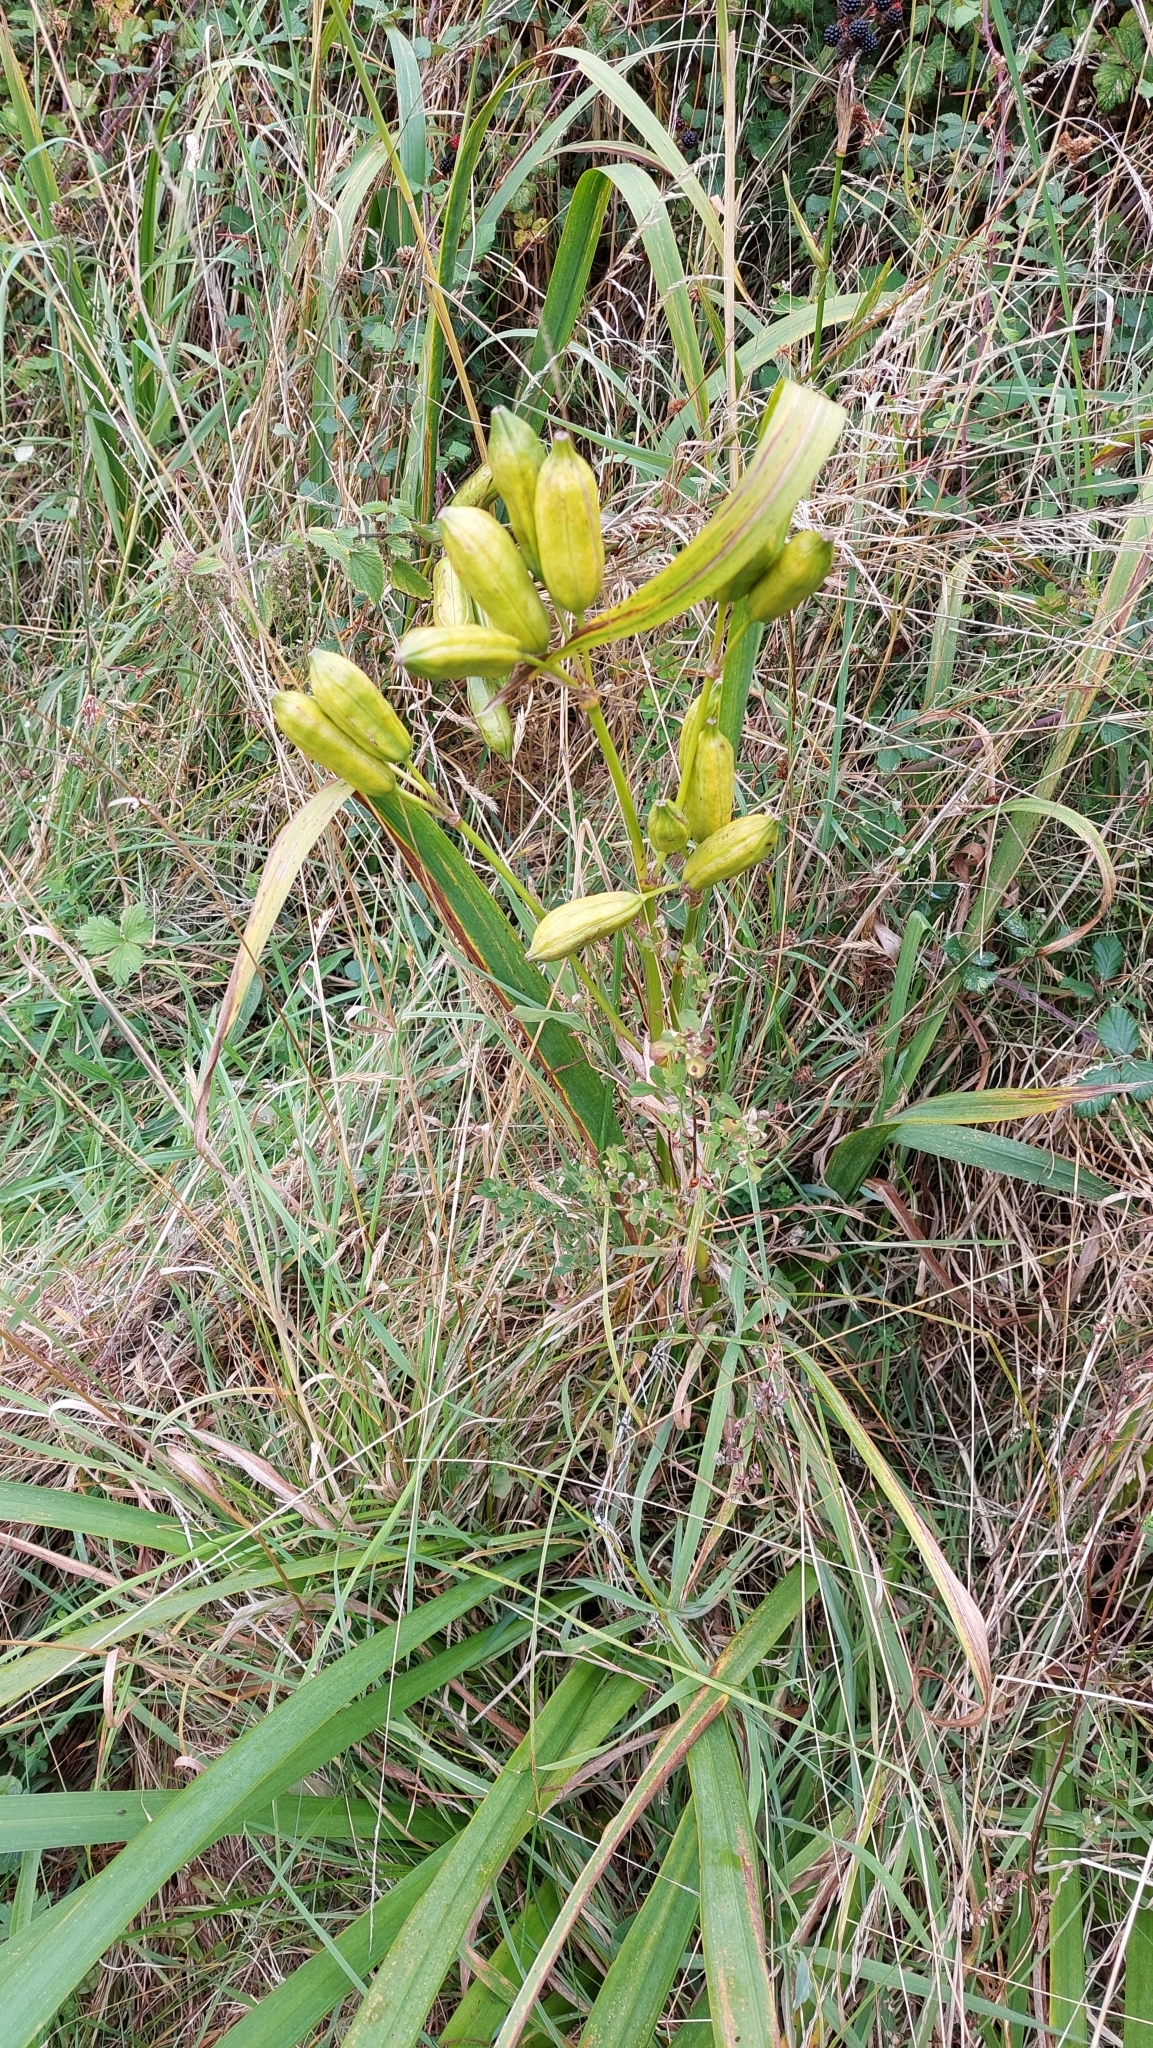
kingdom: Plantae
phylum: Tracheophyta
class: Liliopsida
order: Asparagales
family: Iridaceae
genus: Iris
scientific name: Iris pseudacorus
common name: Yellow flag
